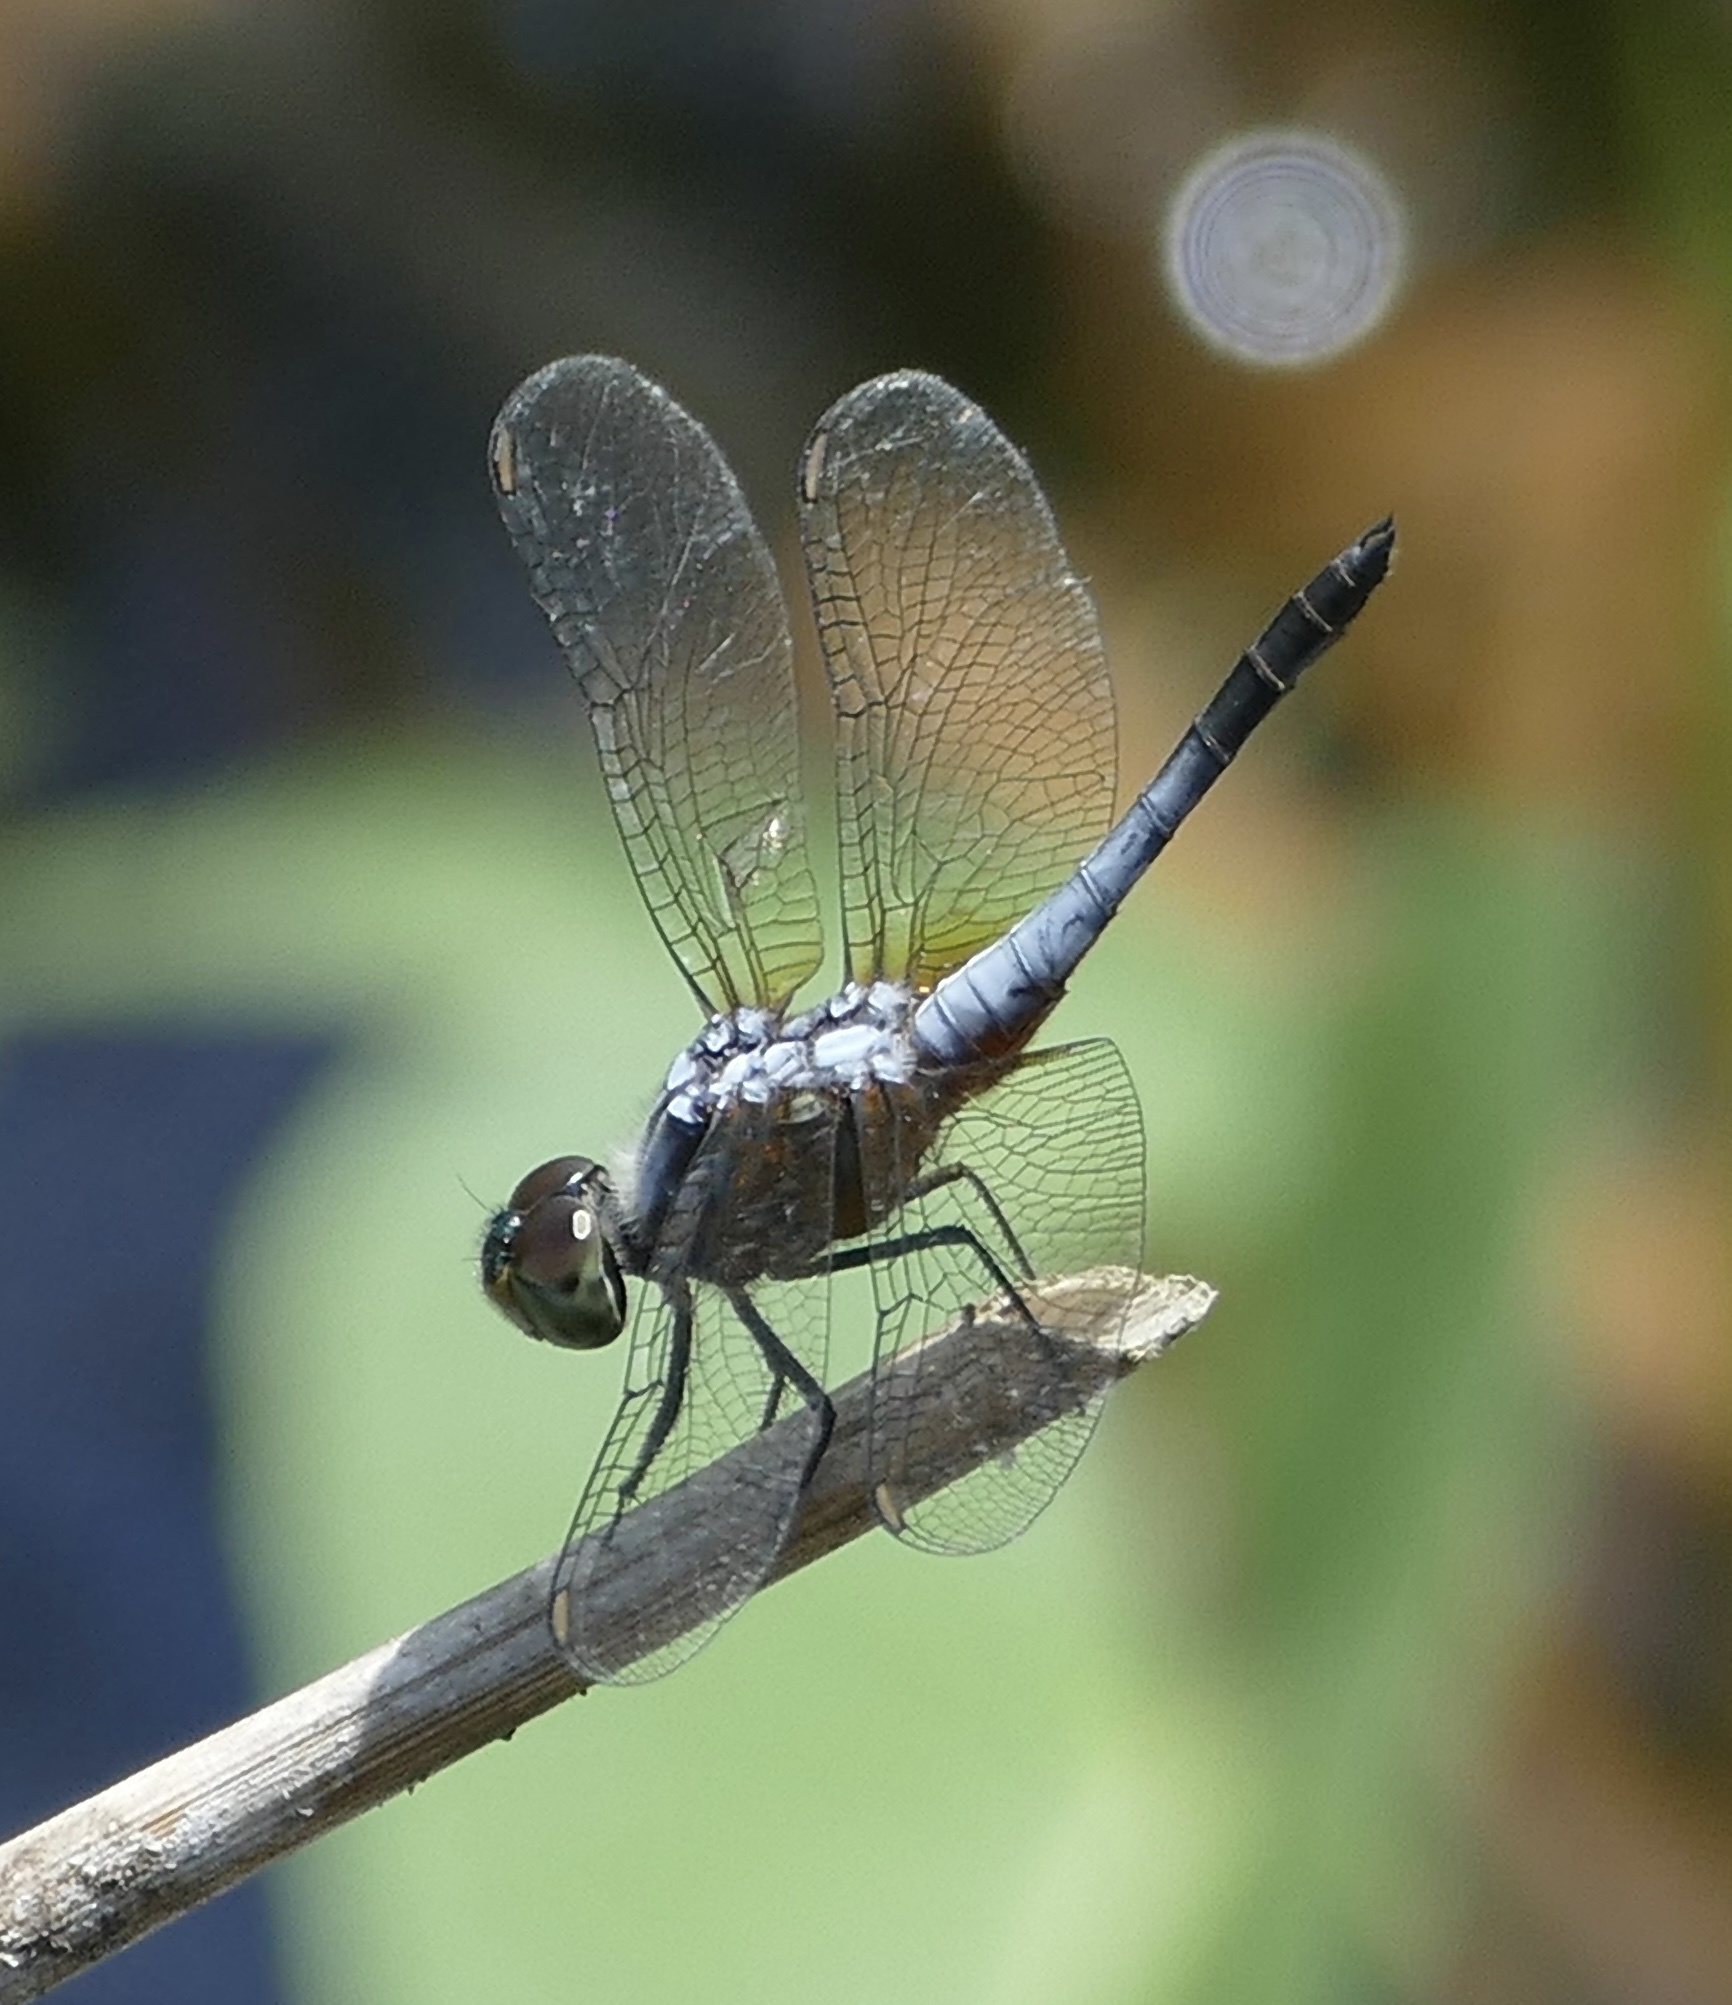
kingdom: Animalia
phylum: Arthropoda
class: Insecta
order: Odonata
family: Libellulidae
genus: Brachydiplax
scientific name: Brachydiplax chalybea
